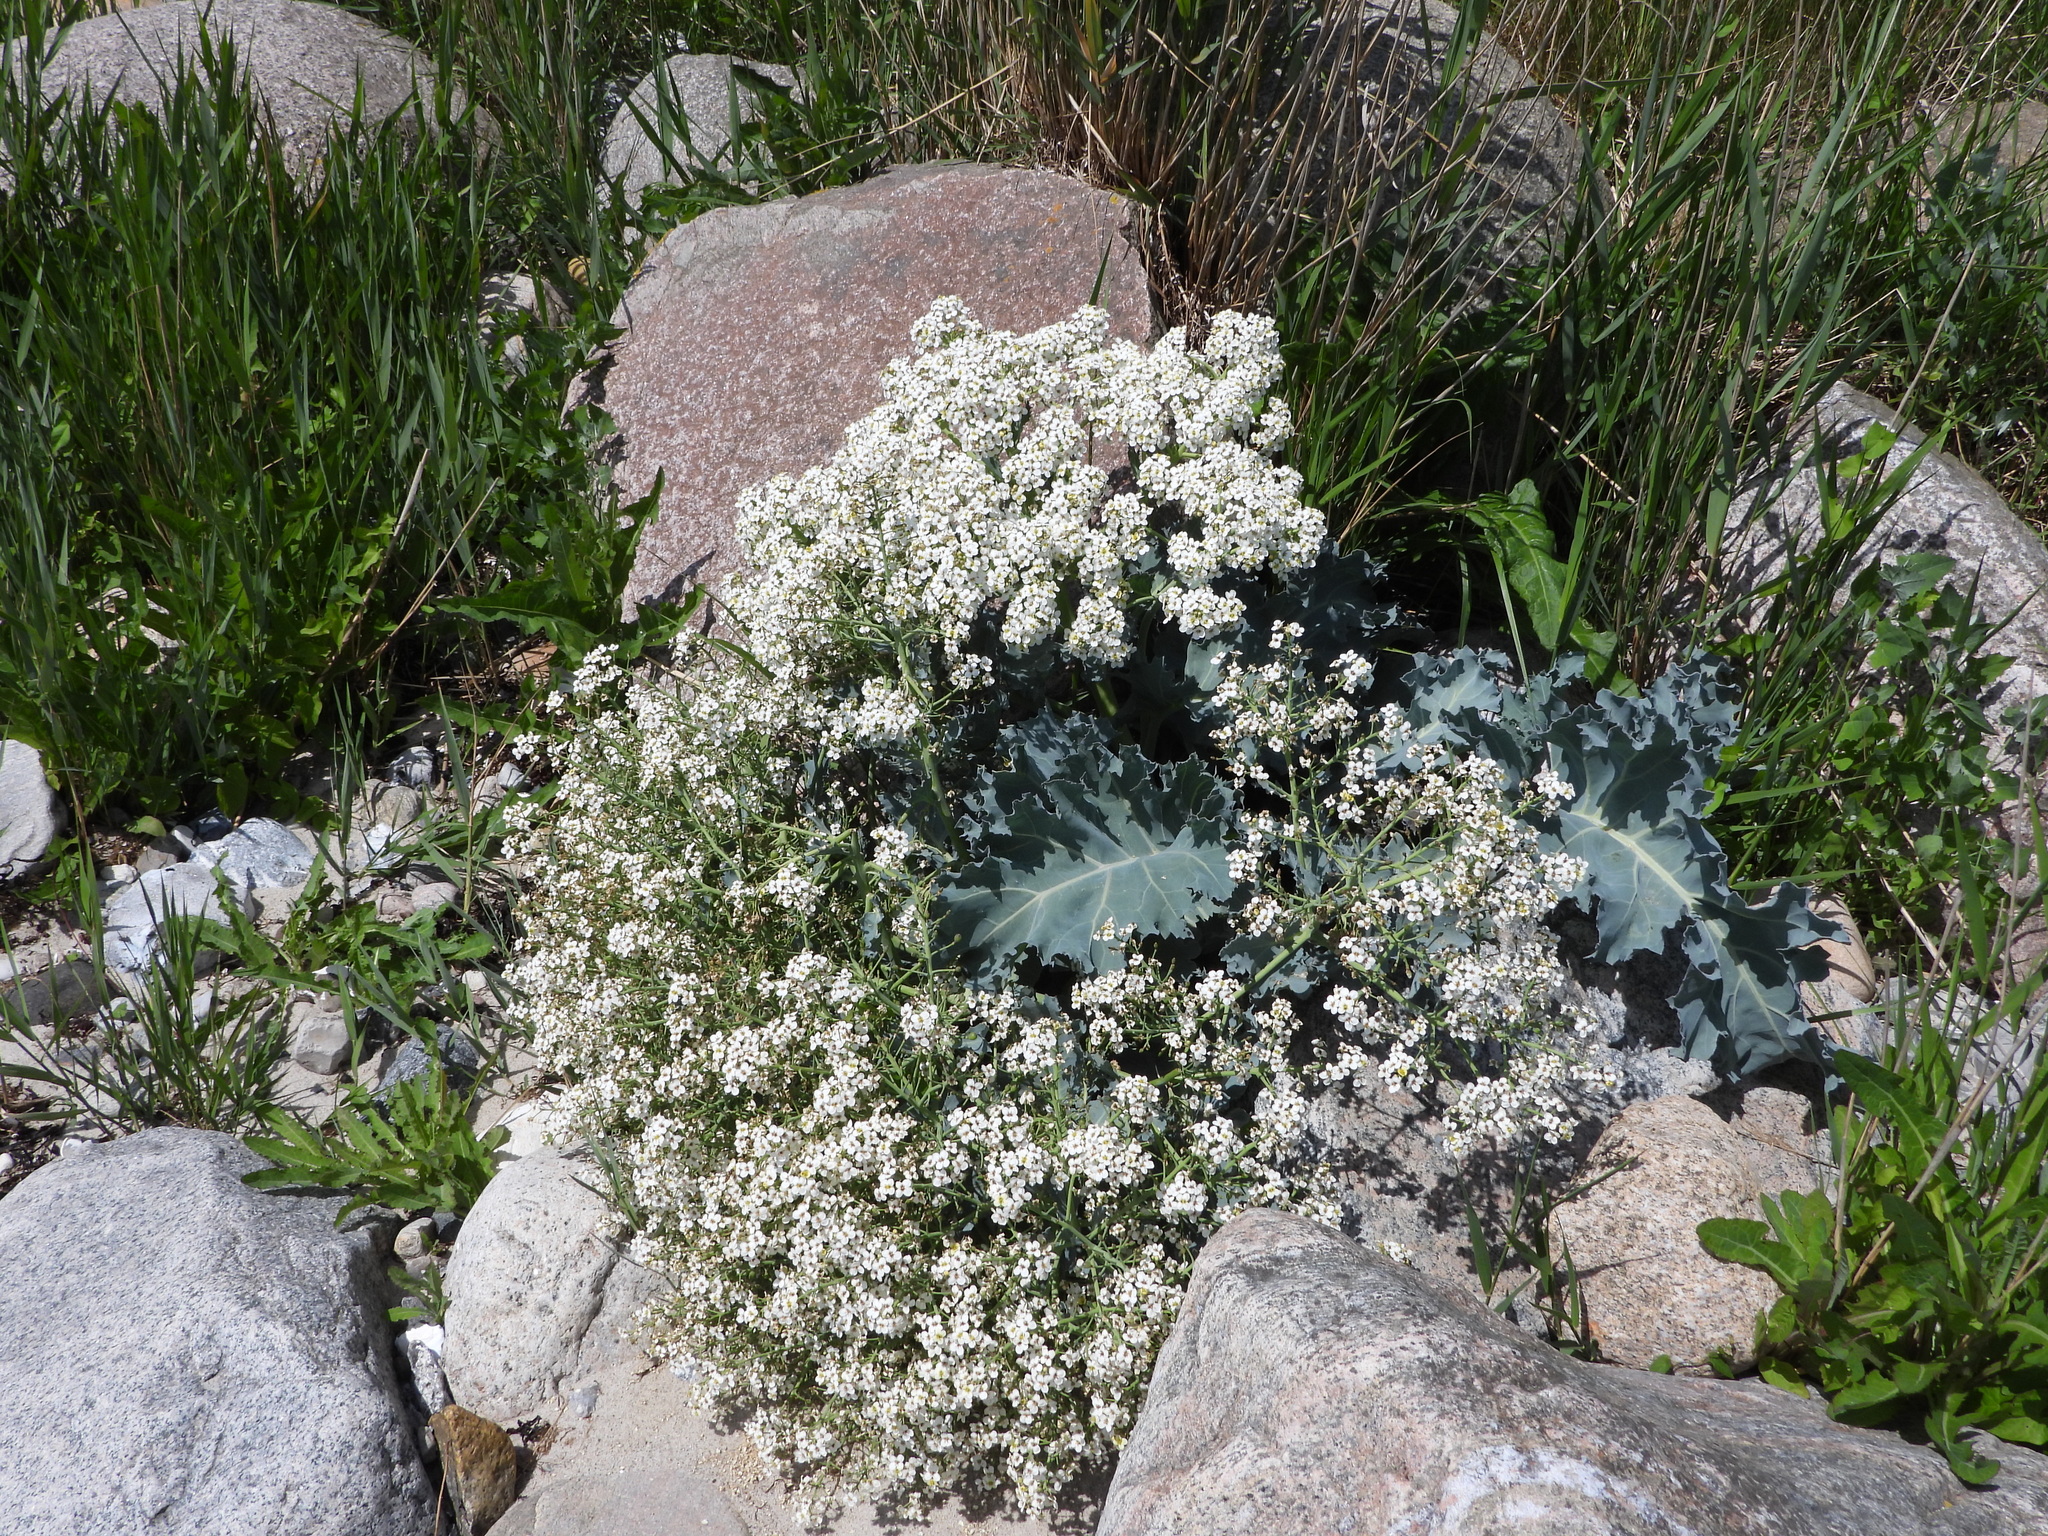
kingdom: Plantae
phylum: Tracheophyta
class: Magnoliopsida
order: Brassicales
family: Brassicaceae
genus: Crambe
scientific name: Crambe maritima
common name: Sea-kale
